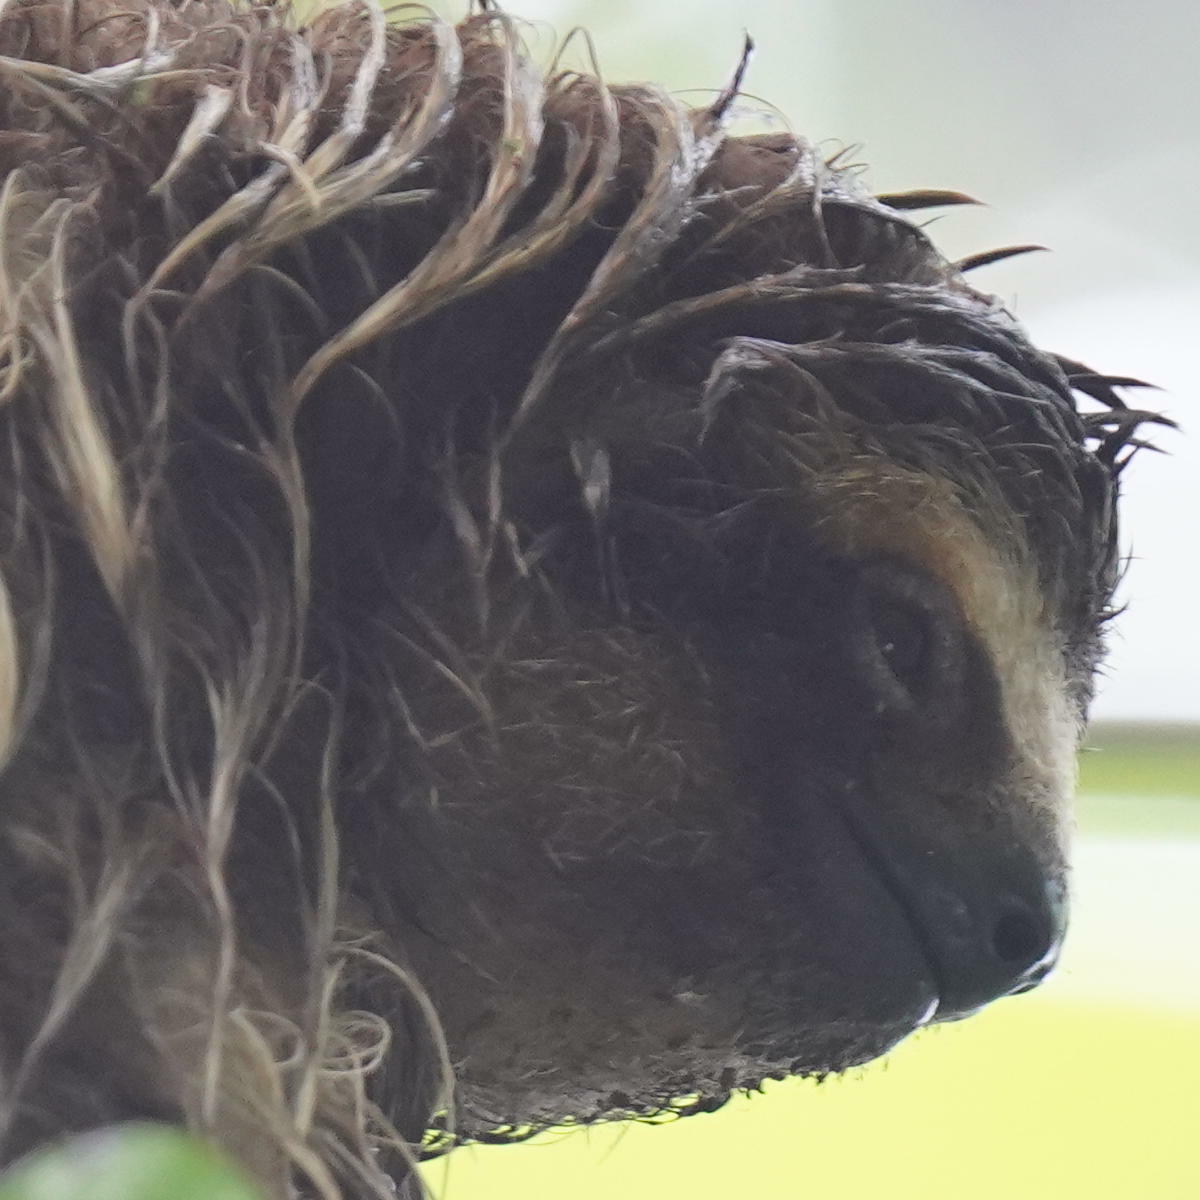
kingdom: Animalia
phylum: Chordata
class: Mammalia
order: Pilosa
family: Bradypodidae
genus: Bradypus
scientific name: Bradypus variegatus
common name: Brown-throated three-toed sloth
